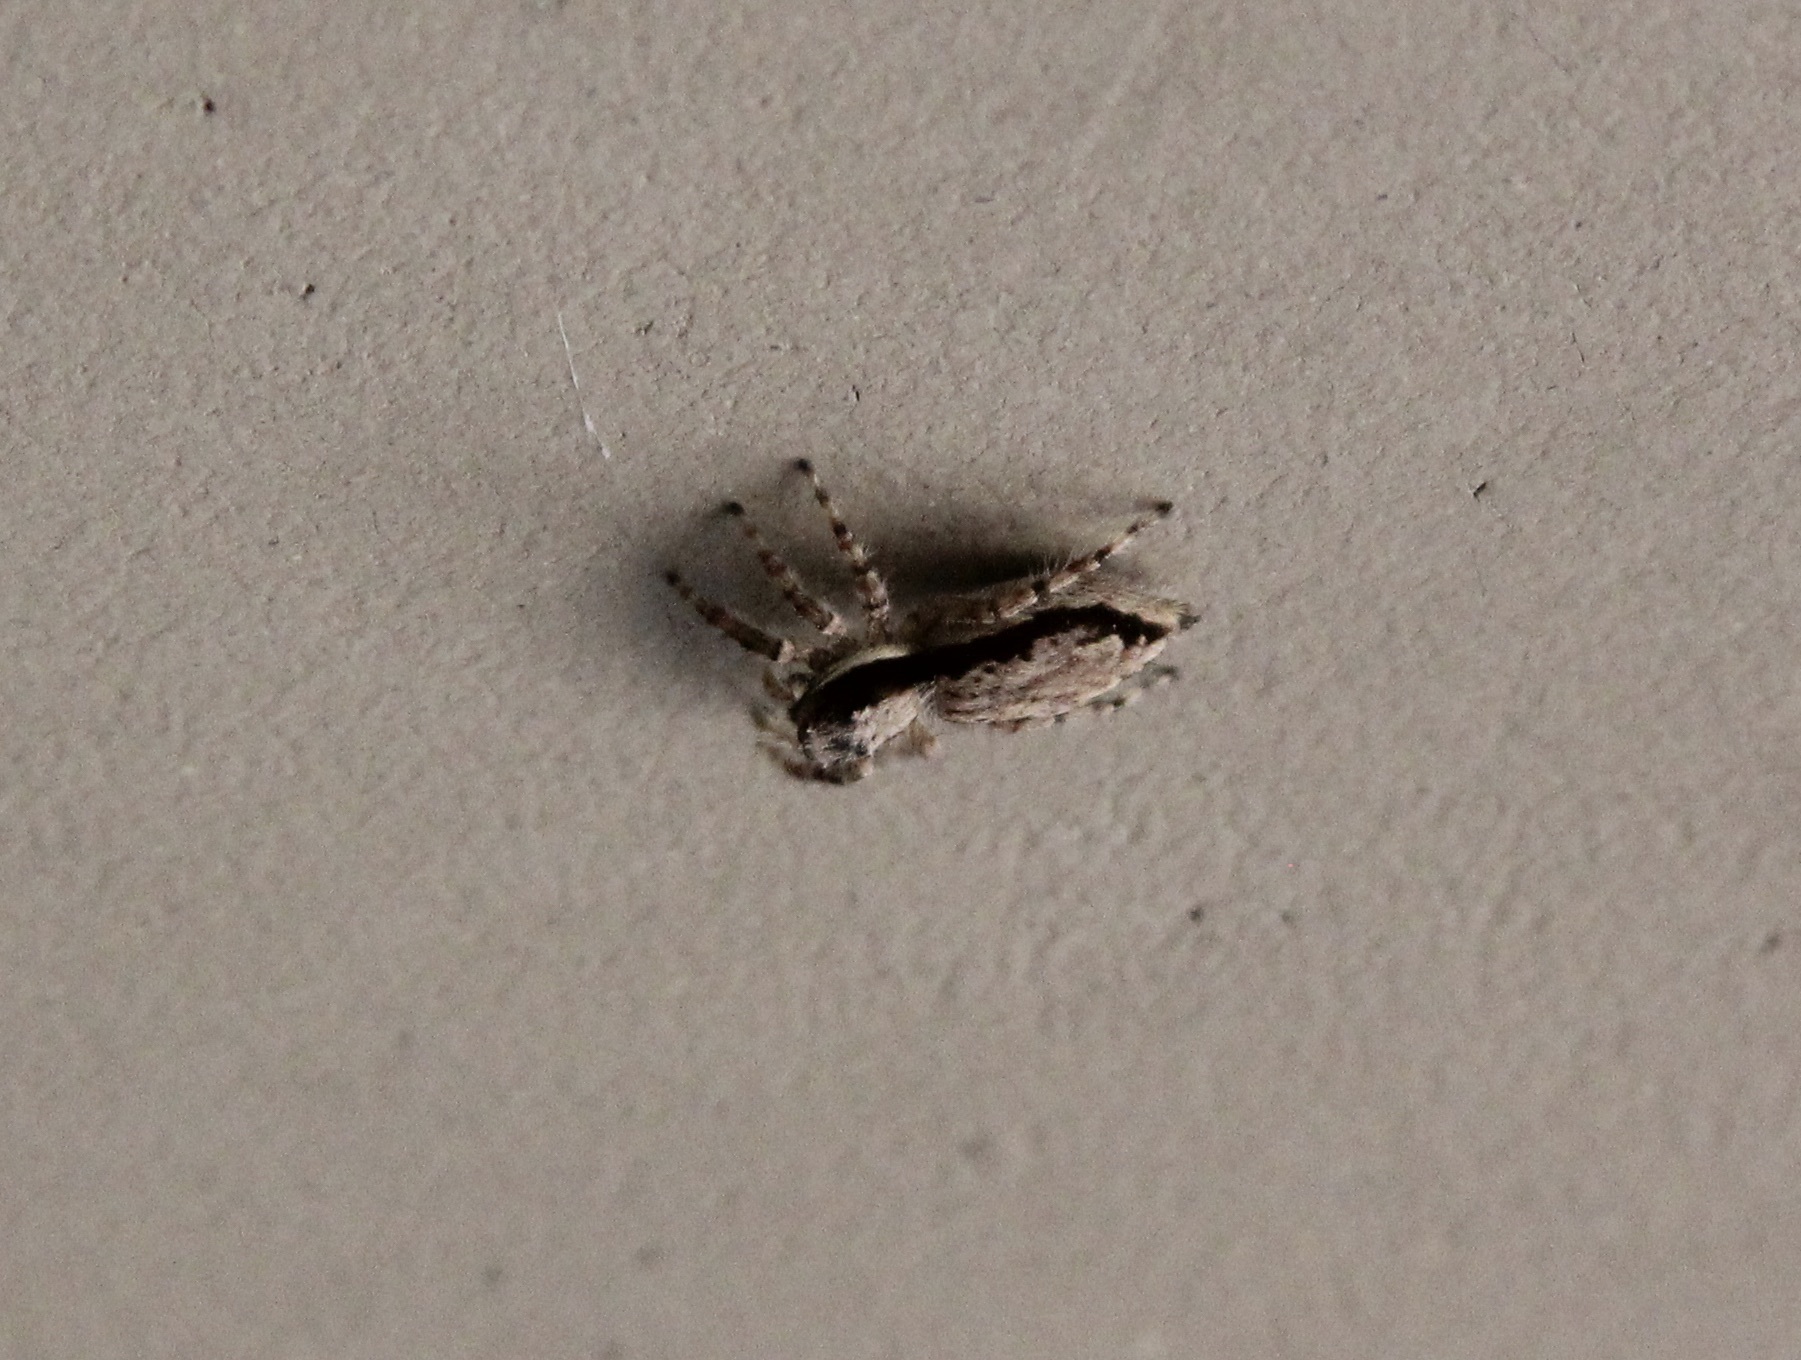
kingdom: Animalia
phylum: Arthropoda
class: Arachnida
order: Araneae
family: Salticidae
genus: Menemerus
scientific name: Menemerus bivittatus
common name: Gray wall jumper
